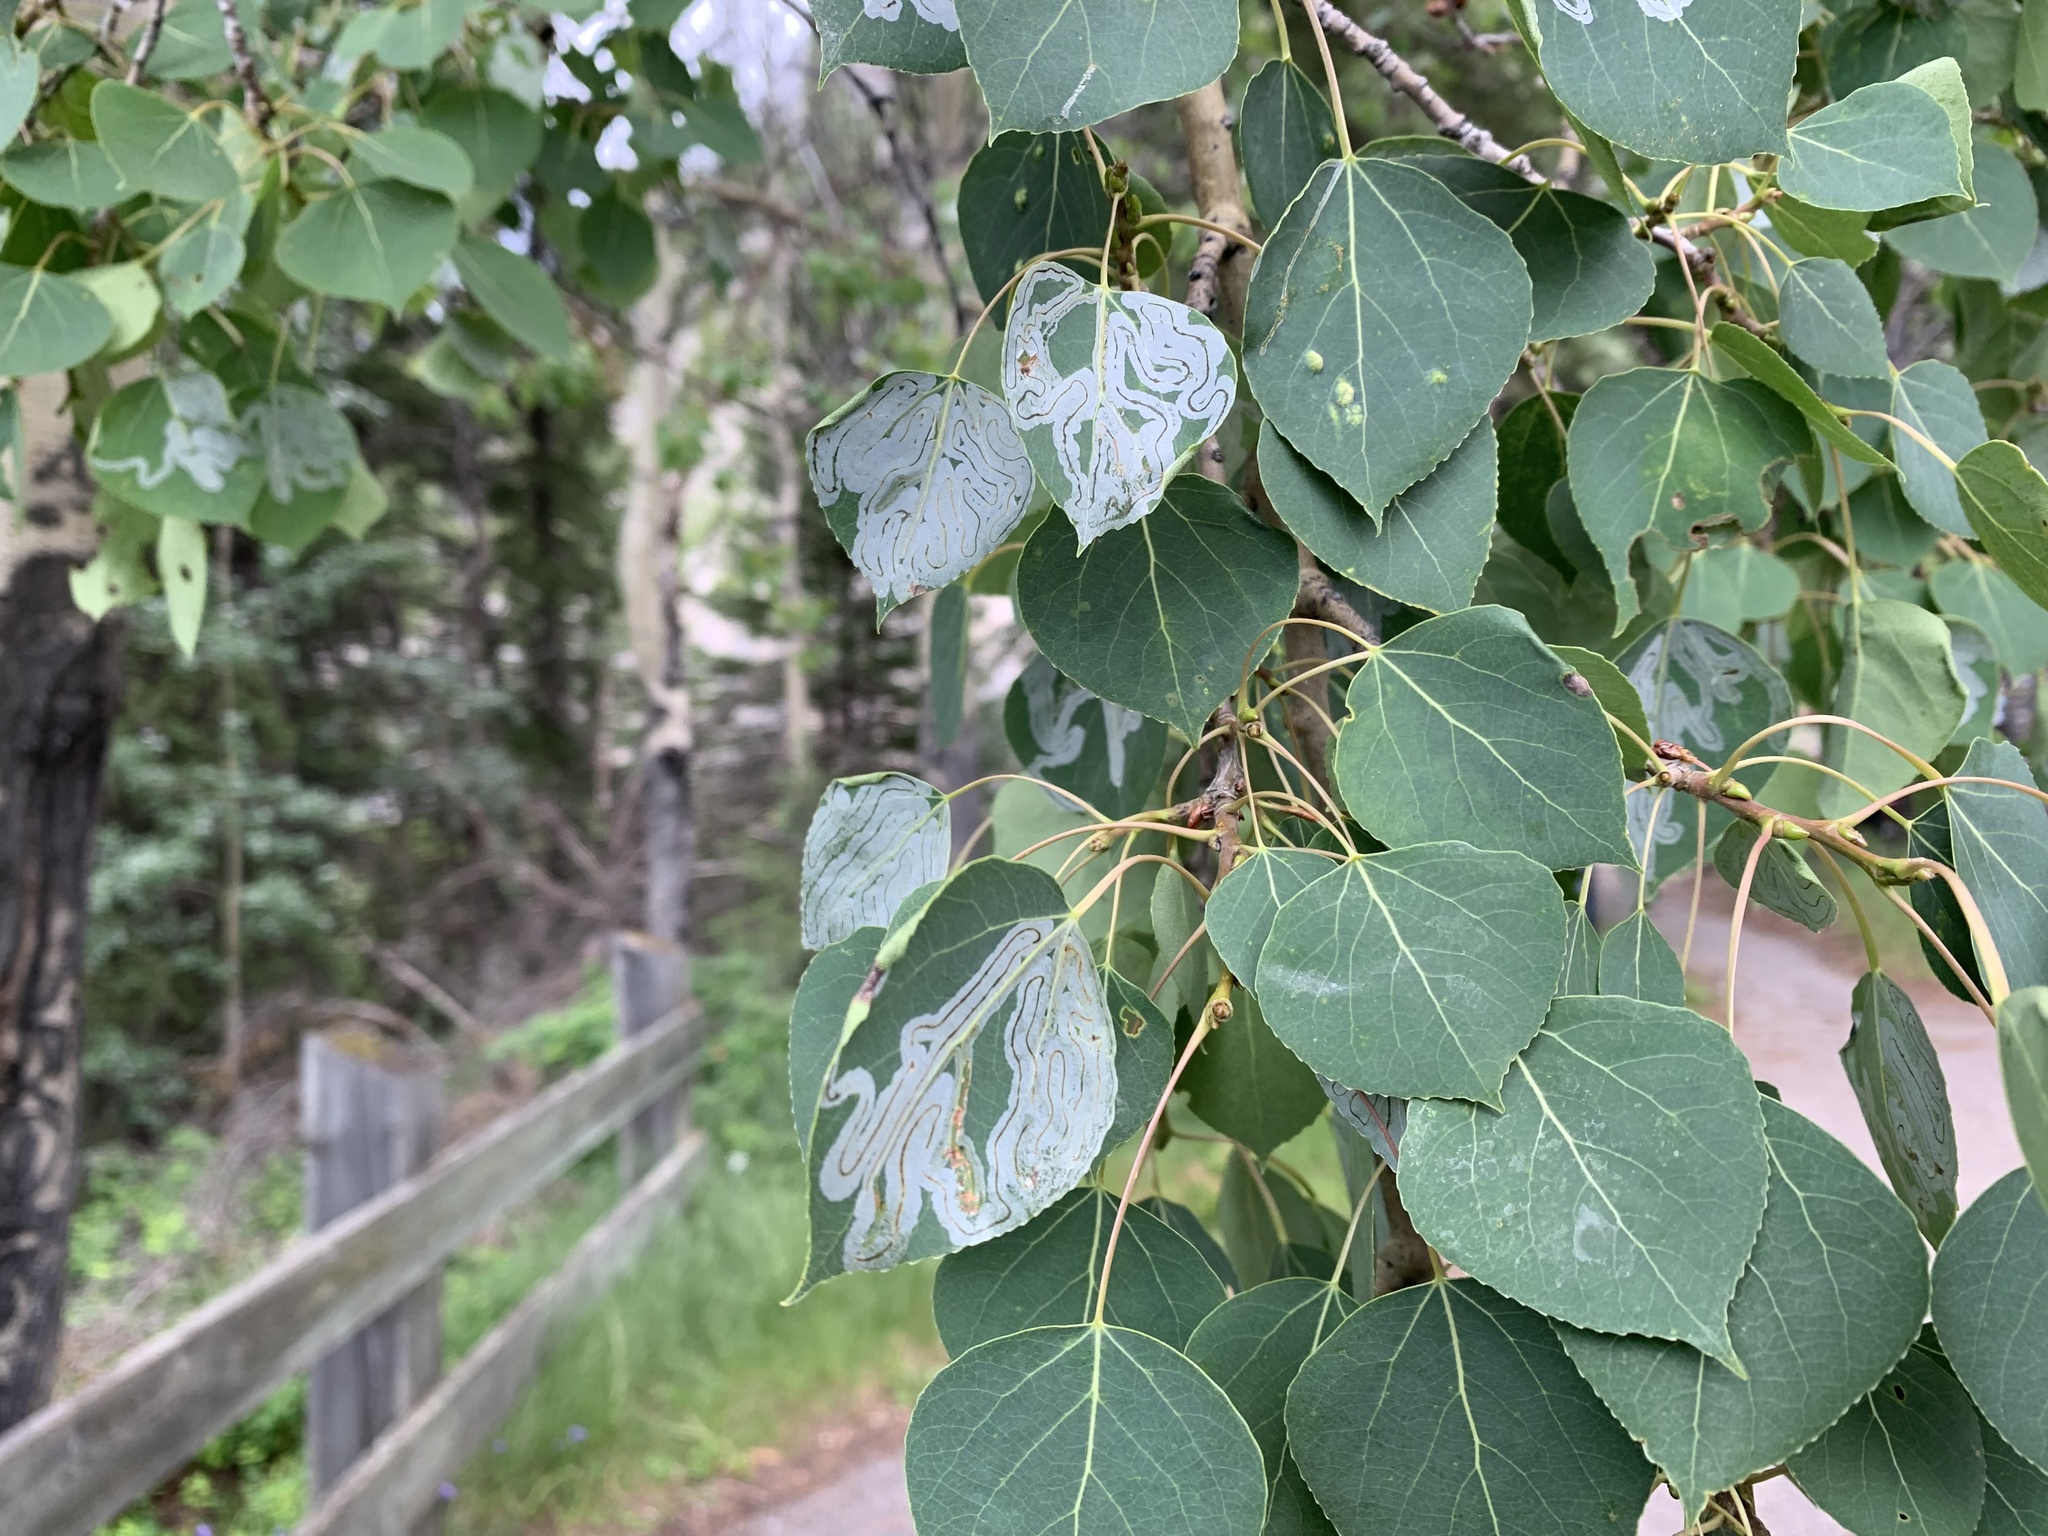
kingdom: Animalia
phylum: Arthropoda
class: Insecta
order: Lepidoptera
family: Gracillariidae
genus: Phyllocnistis
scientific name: Phyllocnistis populiella
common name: Aspen serpentine leafminer moth
